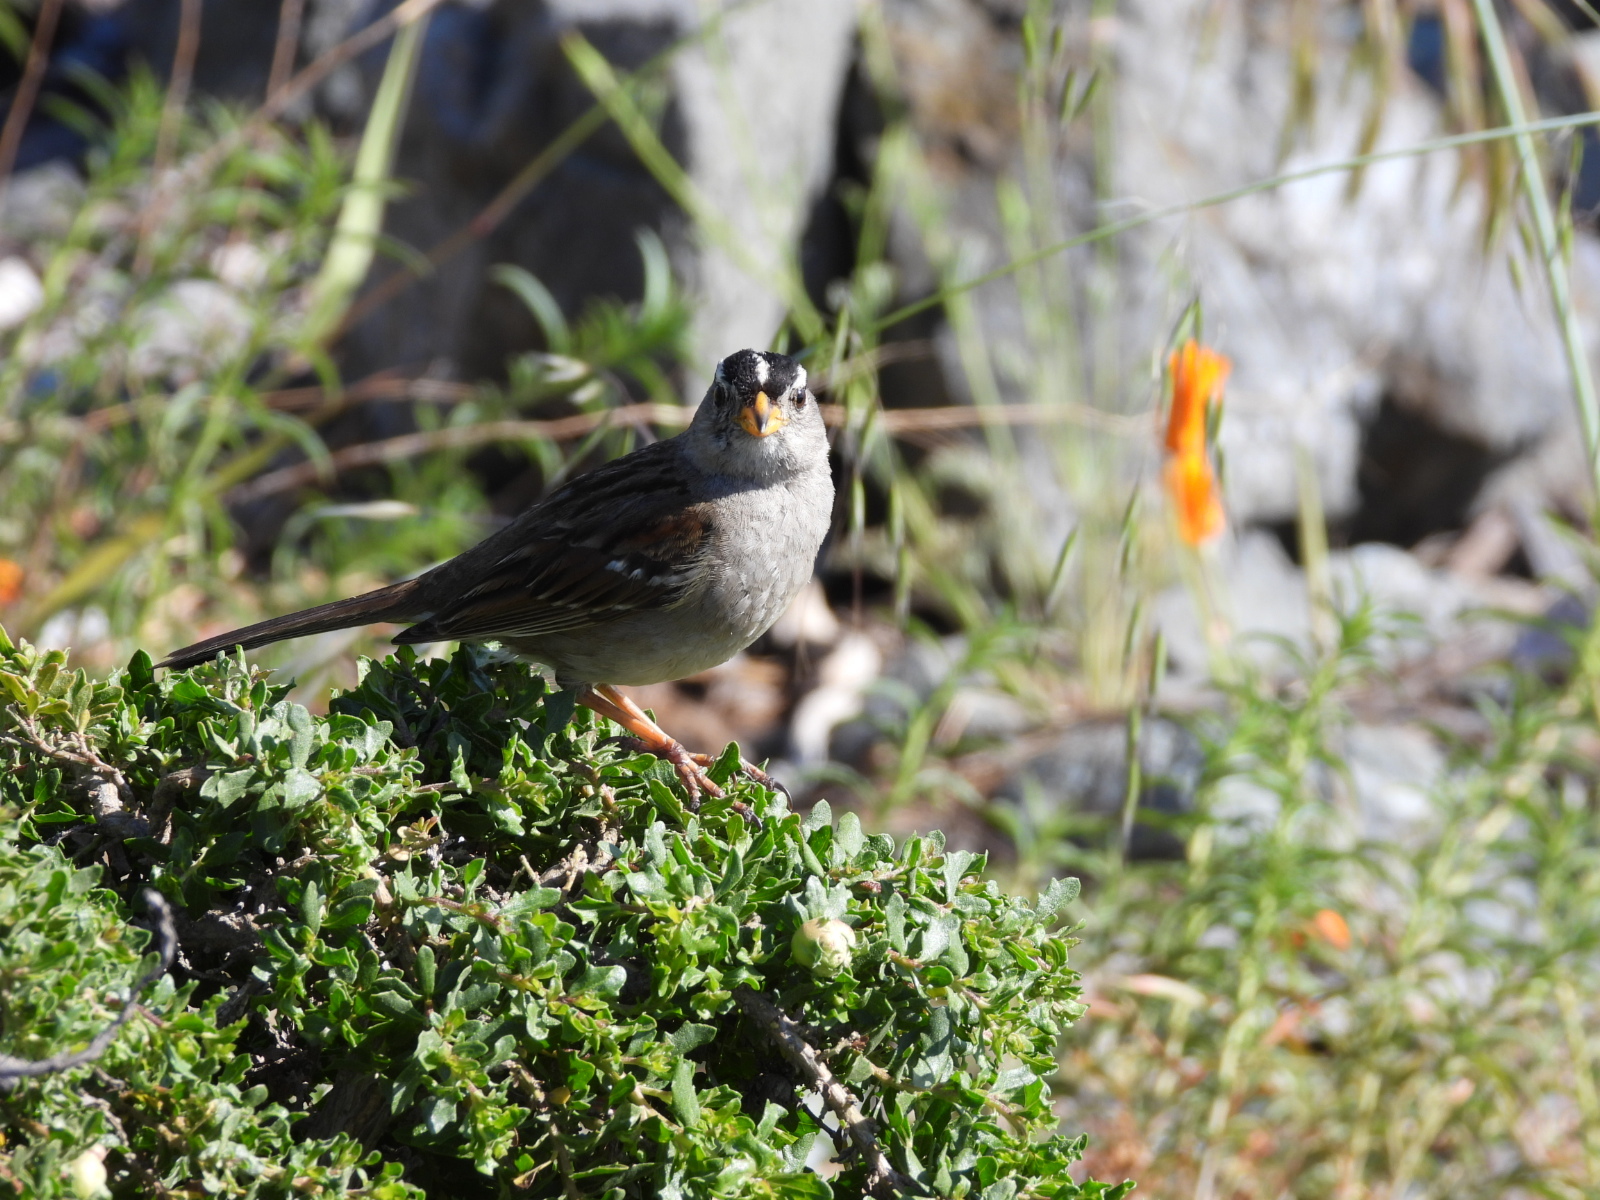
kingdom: Animalia
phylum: Chordata
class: Aves
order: Passeriformes
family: Passerellidae
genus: Zonotrichia
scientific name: Zonotrichia leucophrys
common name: White-crowned sparrow
